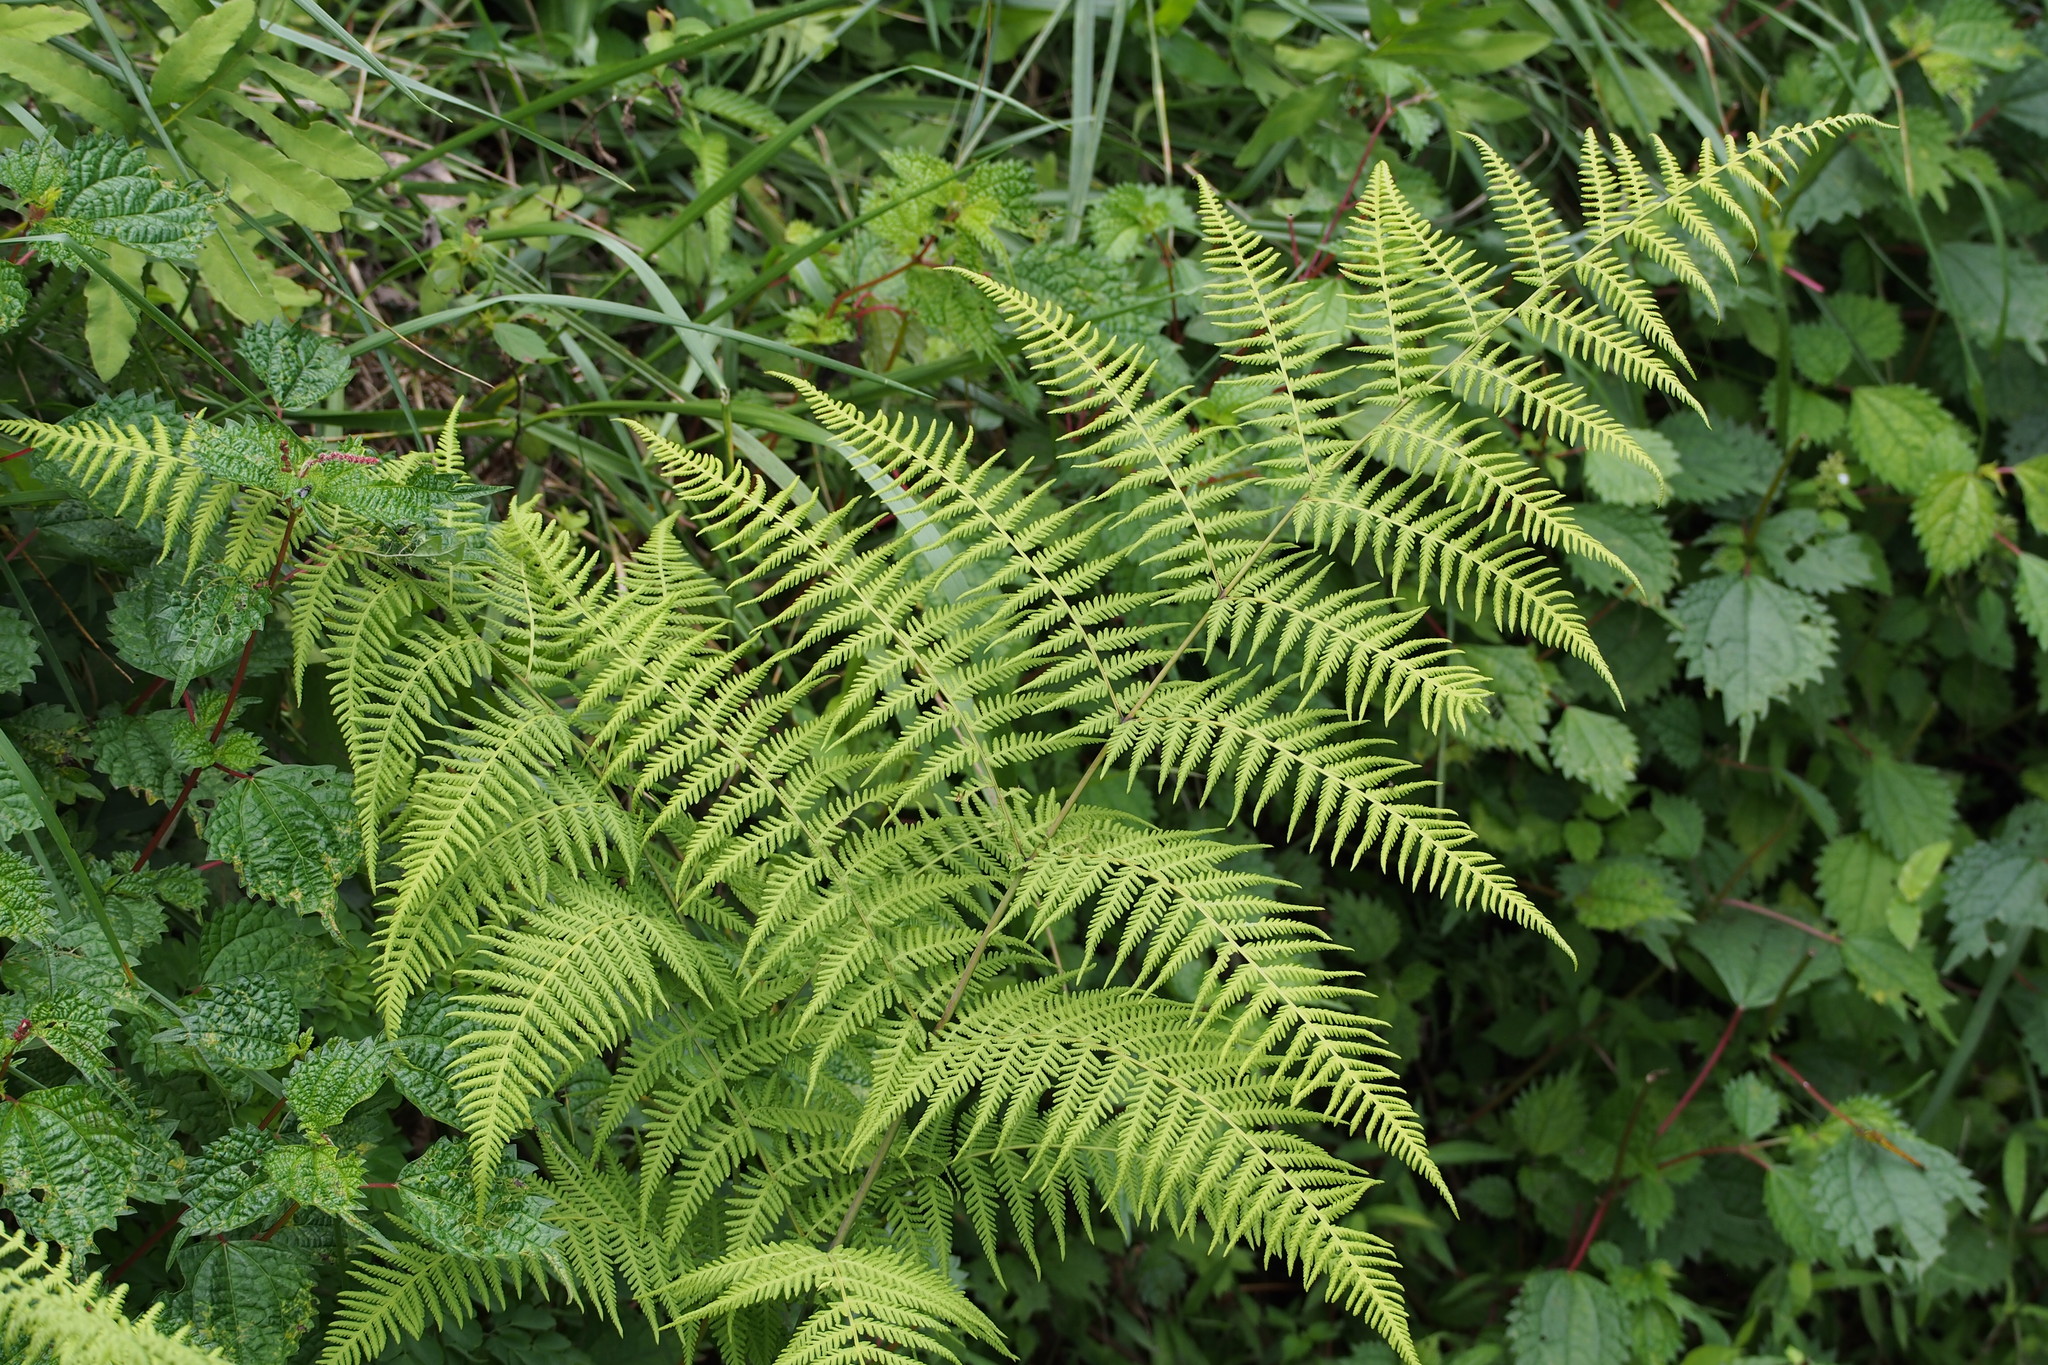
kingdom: Plantae
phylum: Tracheophyta
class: Polypodiopsida
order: Polypodiales
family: Thelypteridaceae
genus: Macrothelypteris
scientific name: Macrothelypteris torresiana
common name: Swordfern
